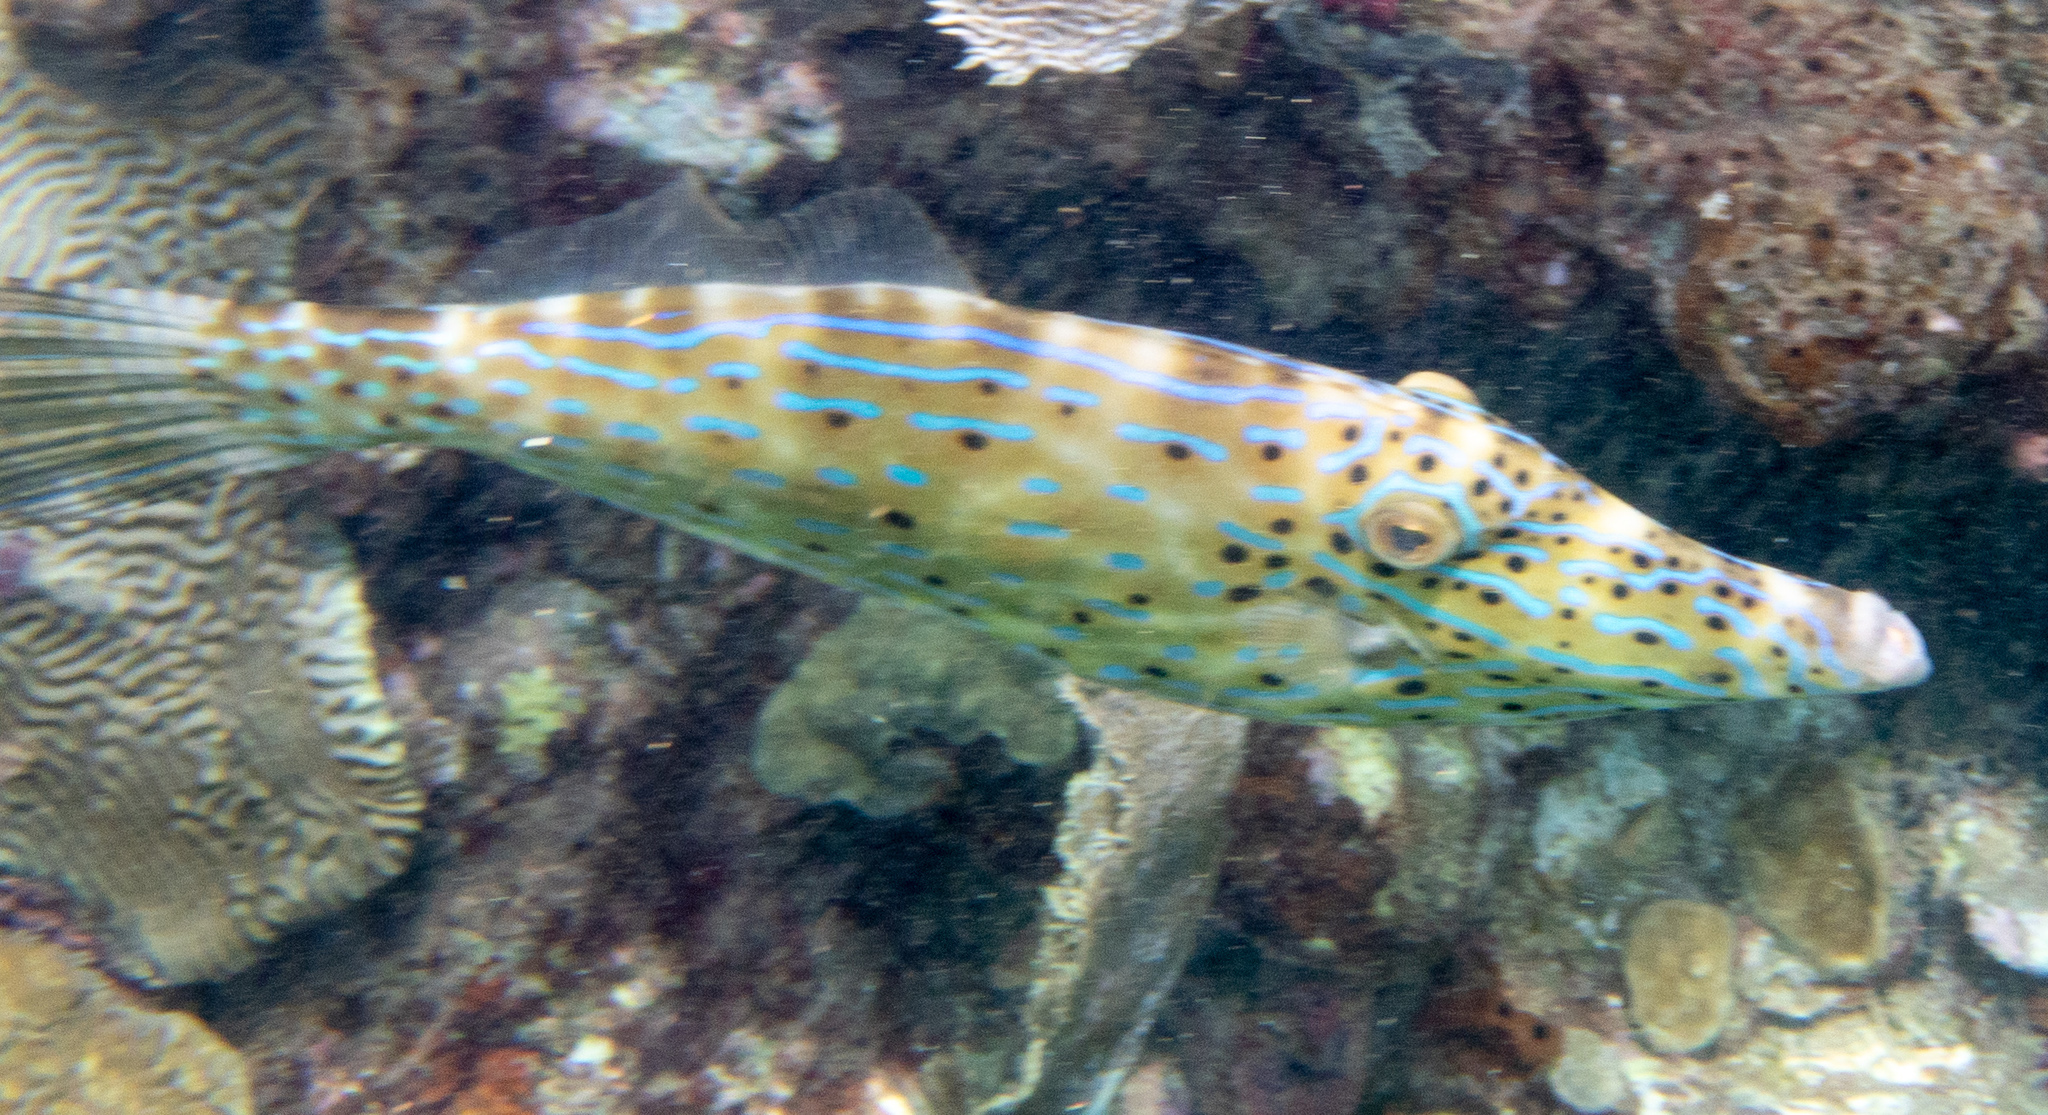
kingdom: Animalia
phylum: Chordata
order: Tetraodontiformes
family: Monacanthidae
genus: Aluterus
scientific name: Aluterus scriptus
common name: Scribbled leatherjacket filefish
